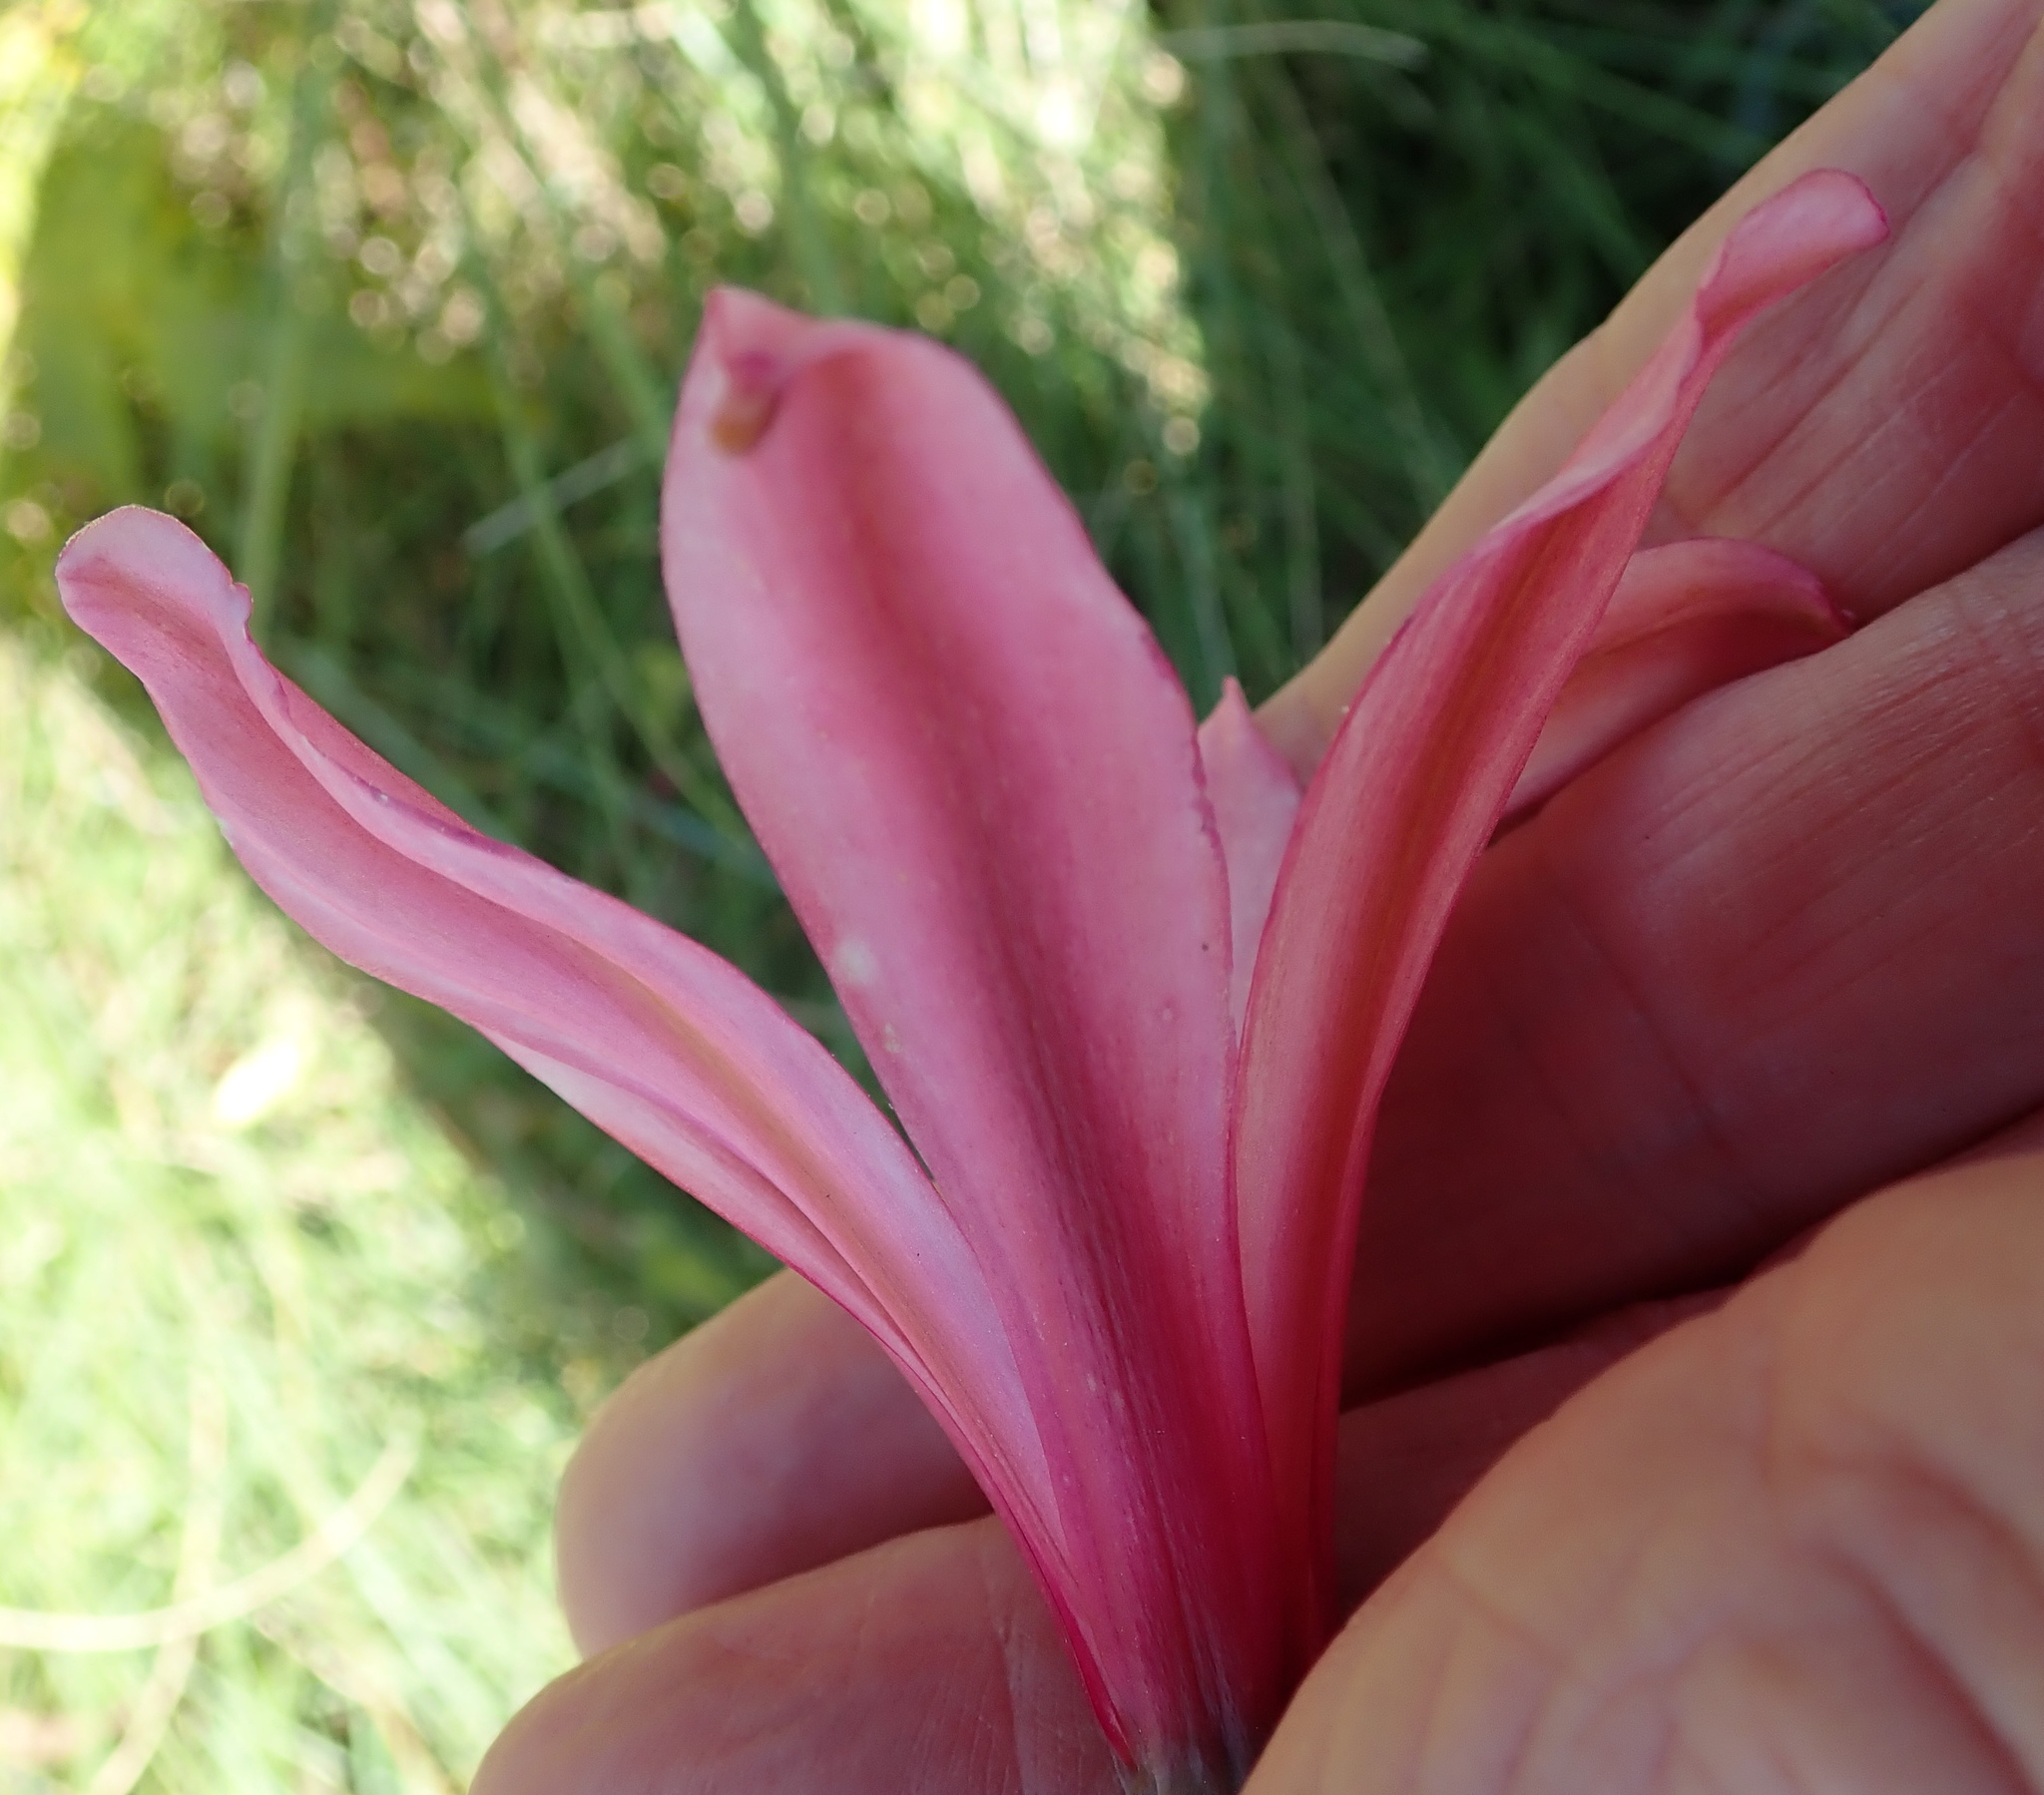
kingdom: Plantae
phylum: Tracheophyta
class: Liliopsida
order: Asparagales
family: Amaryllidaceae
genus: Brunsvigia
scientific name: Brunsvigia grandiflora
